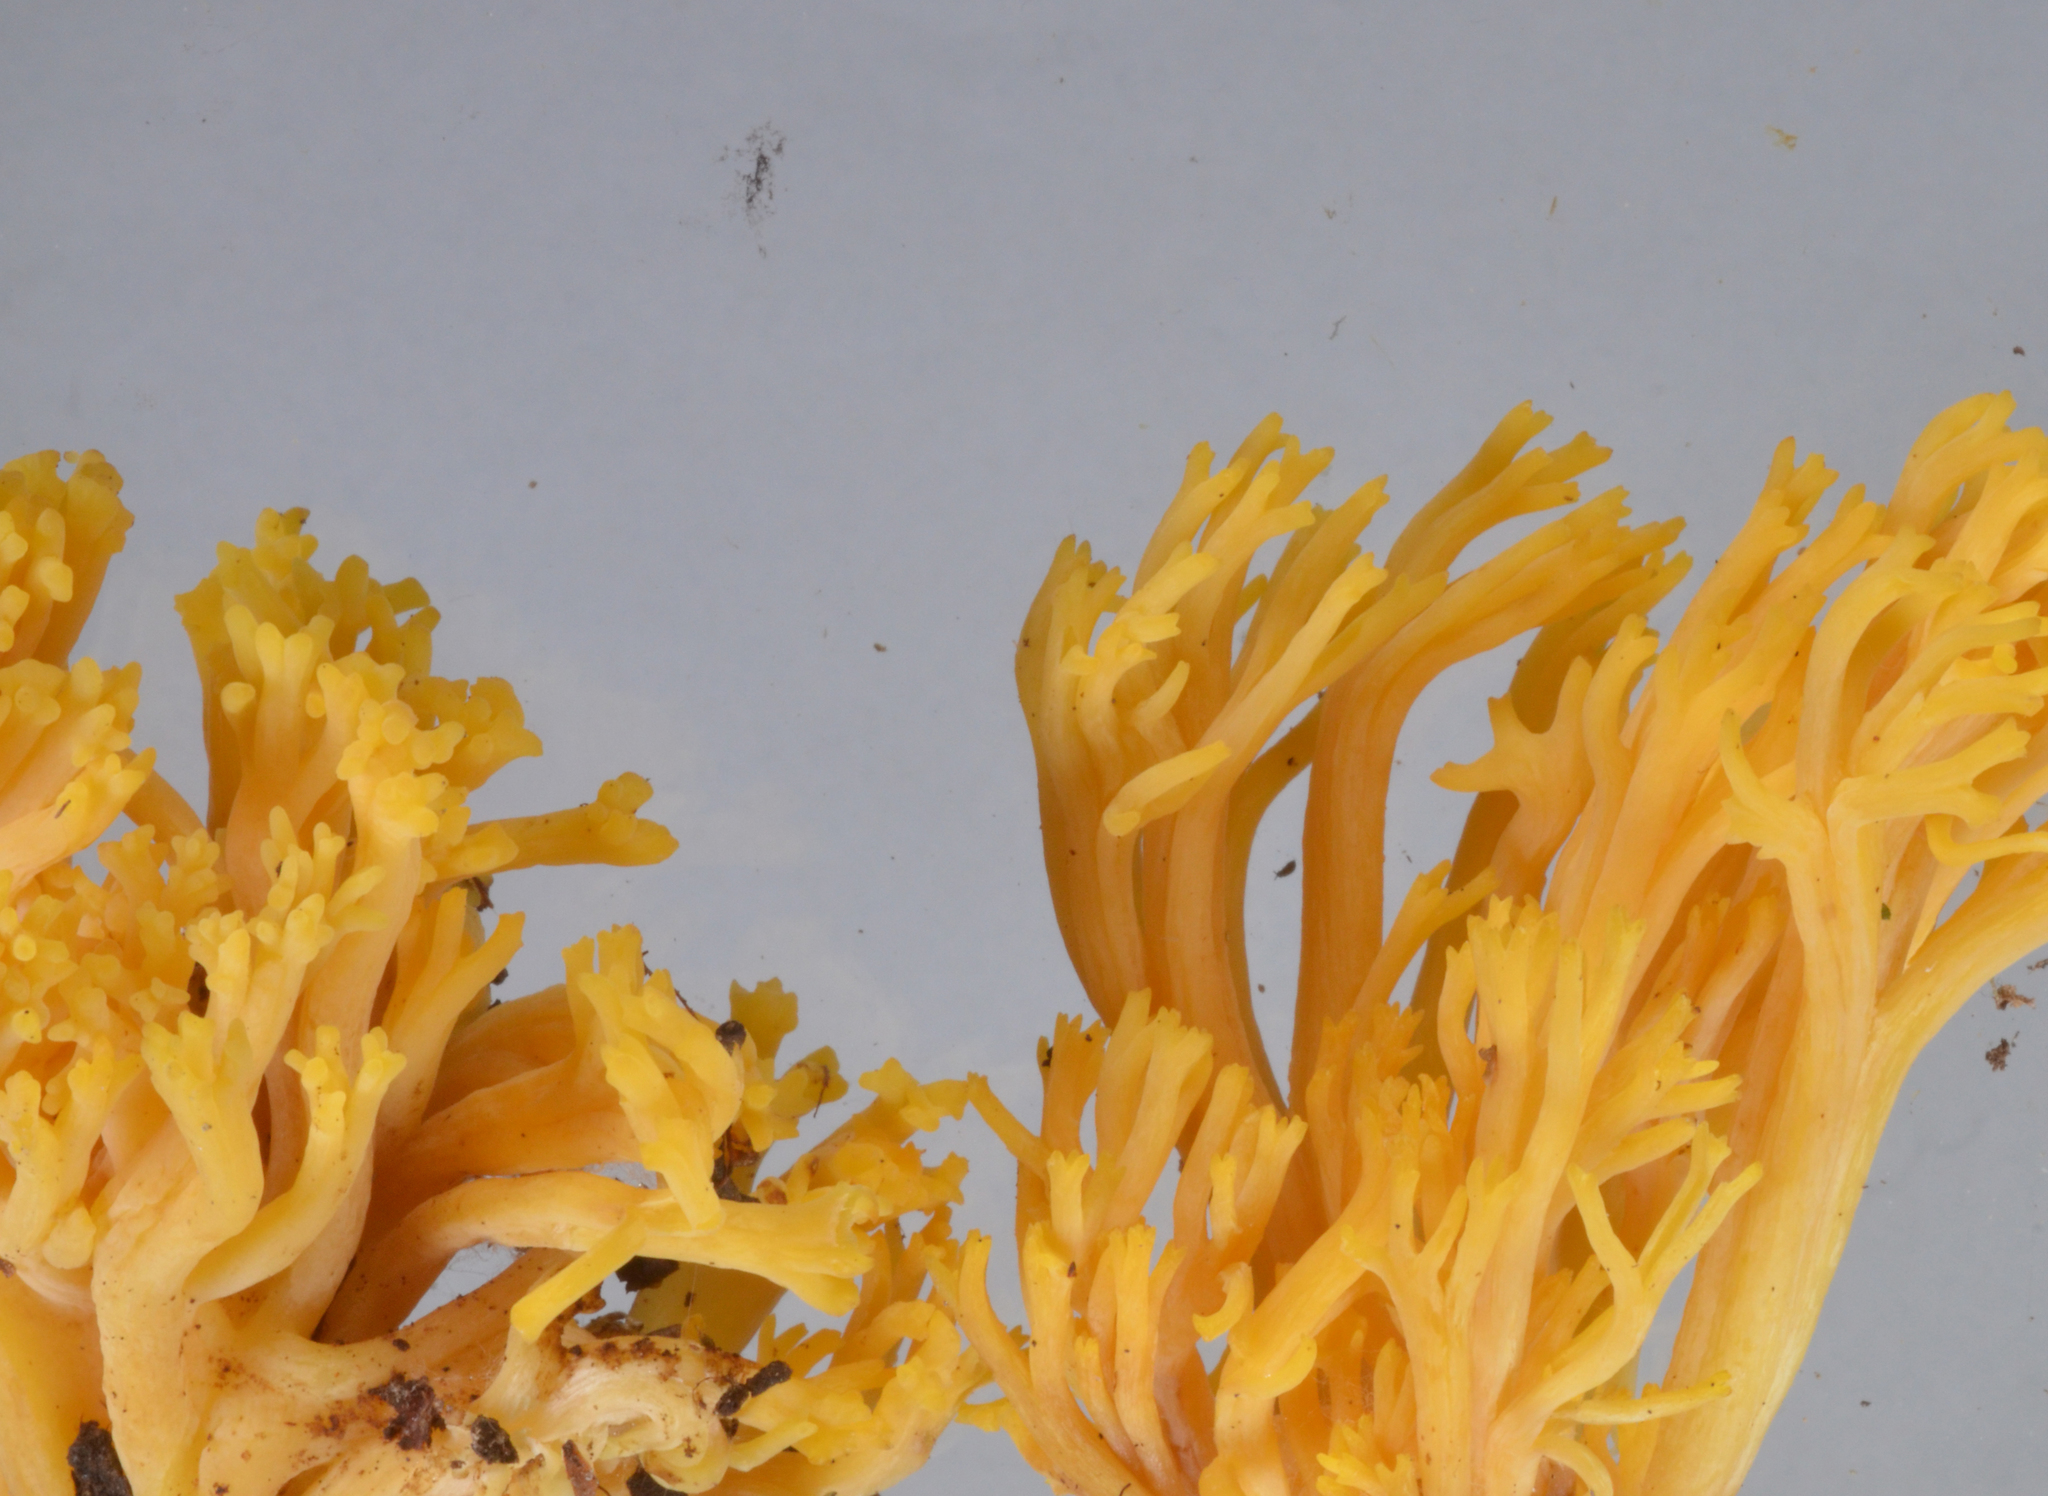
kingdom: Fungi
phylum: Basidiomycota
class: Agaricomycetes
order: Gomphales
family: Gomphaceae
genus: Ramaria
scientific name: Ramaria anziana
